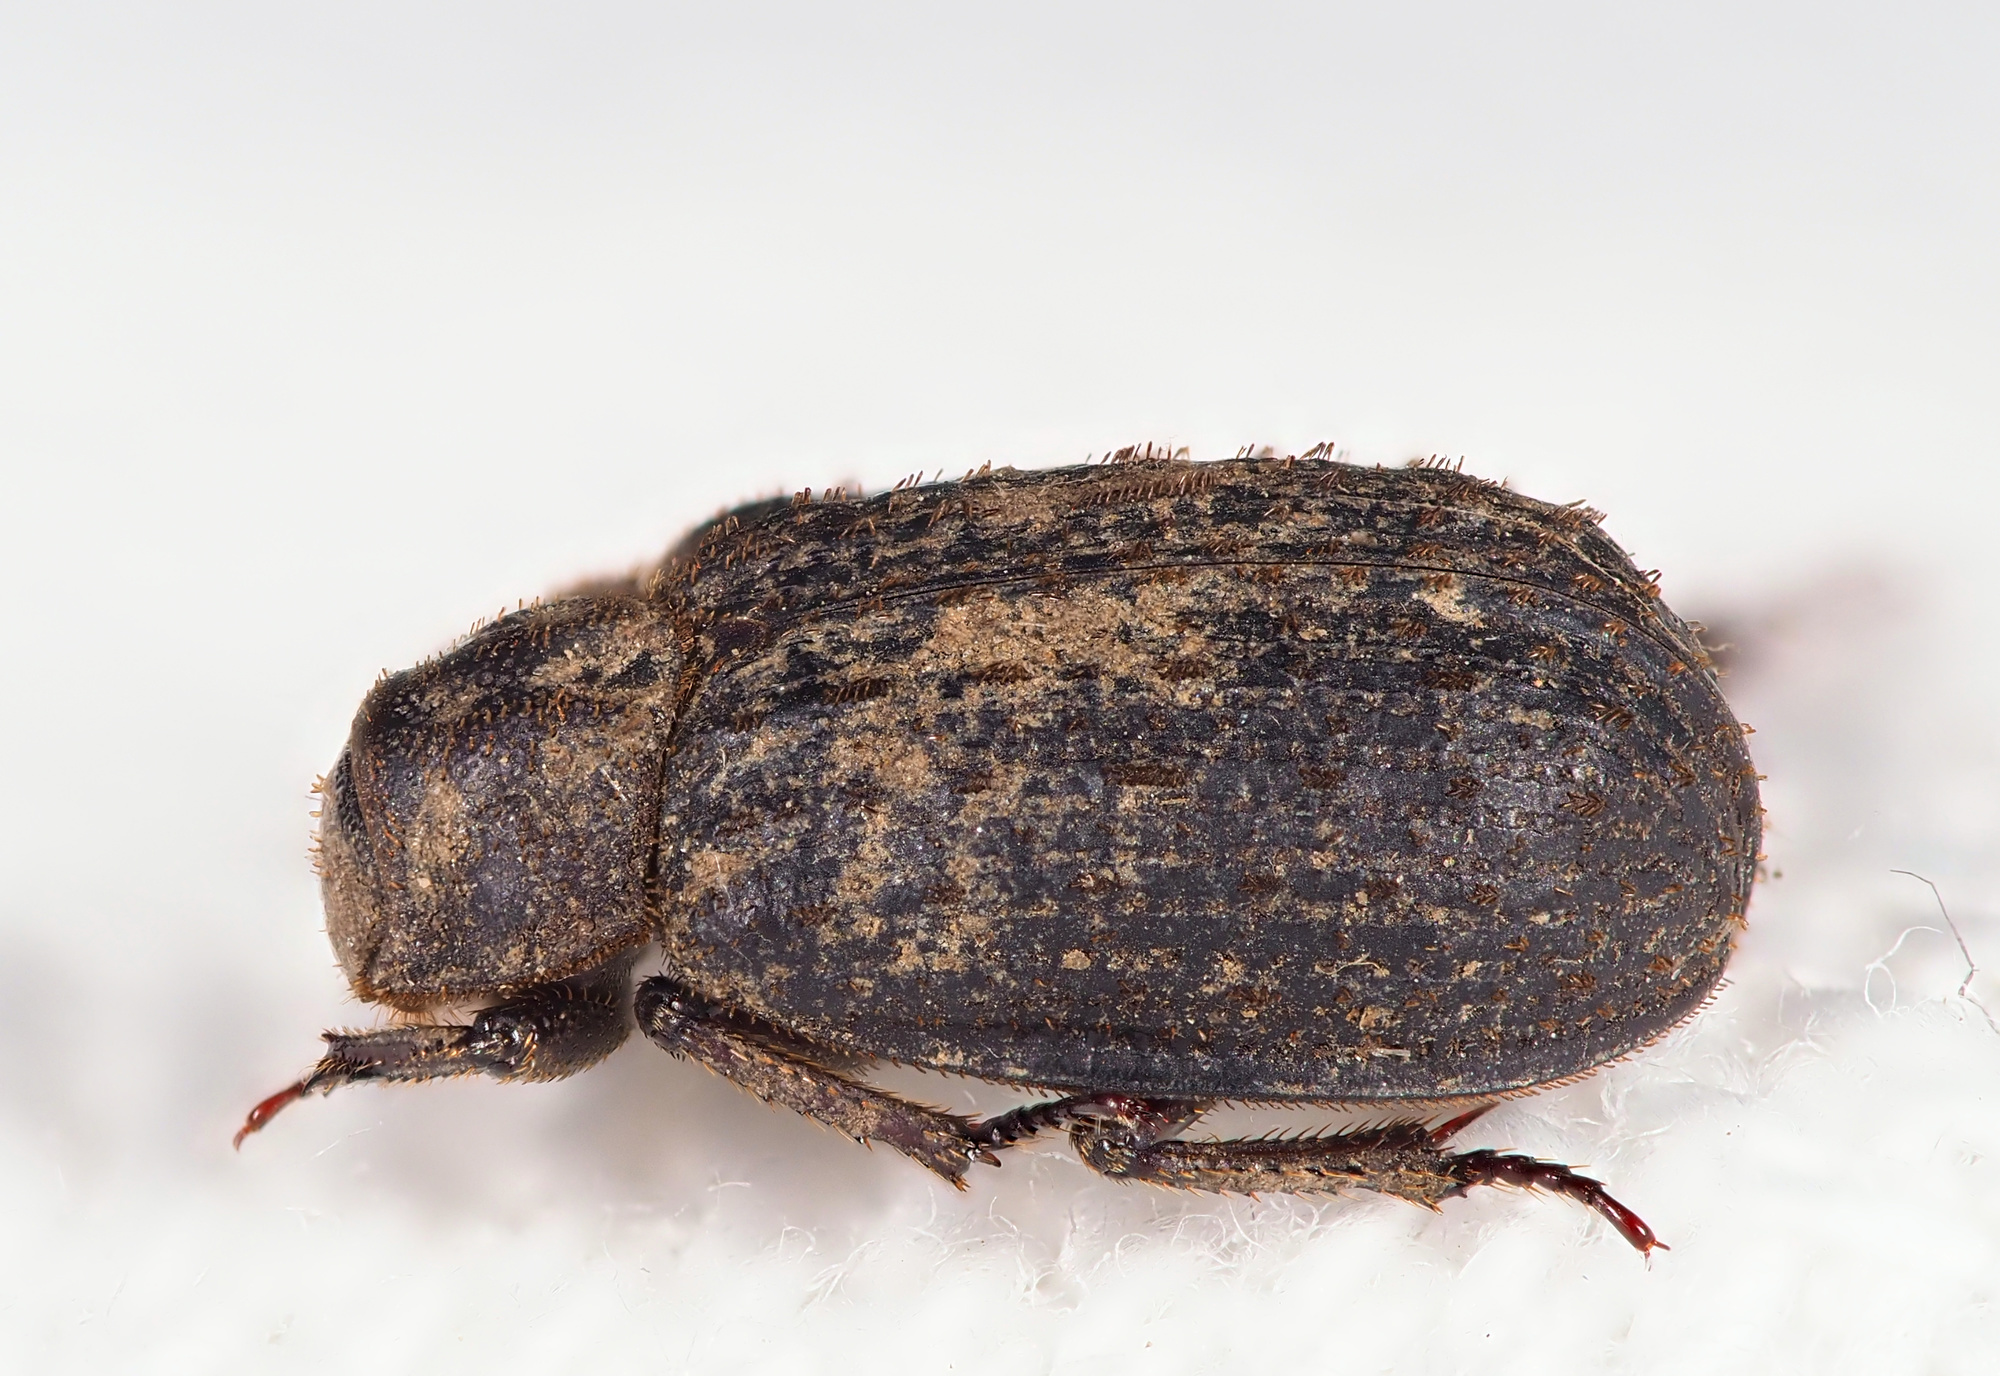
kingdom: Animalia
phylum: Arthropoda
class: Insecta
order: Coleoptera
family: Trogidae
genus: Trox
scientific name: Trox scaber
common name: Hide beetle
